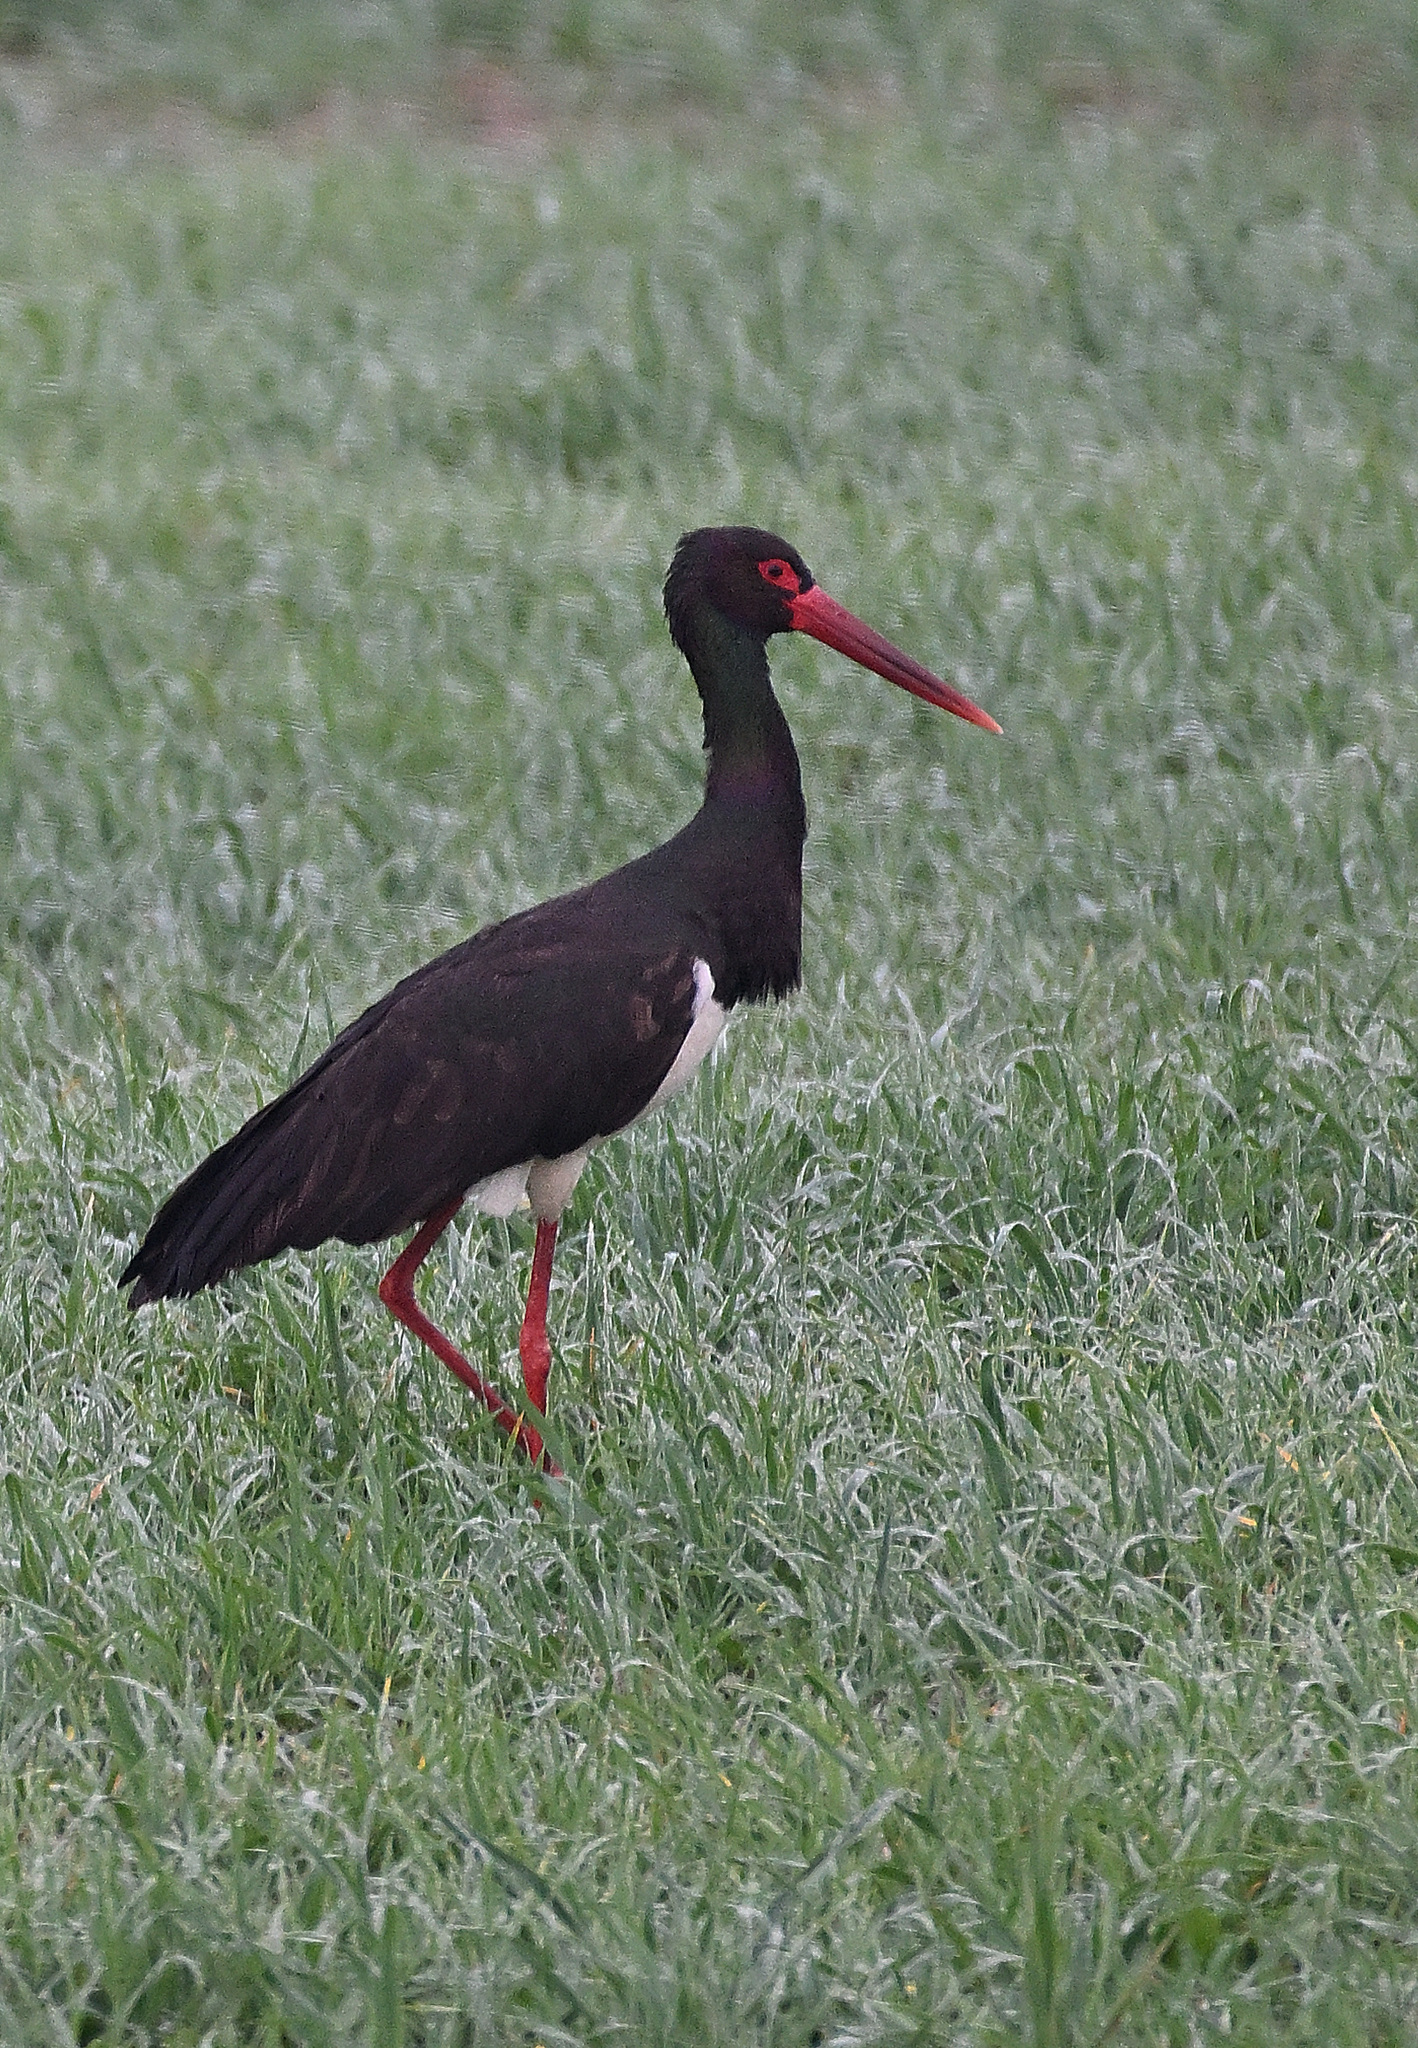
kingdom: Animalia
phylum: Chordata
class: Aves
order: Ciconiiformes
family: Ciconiidae
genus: Ciconia
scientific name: Ciconia nigra
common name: Black stork
